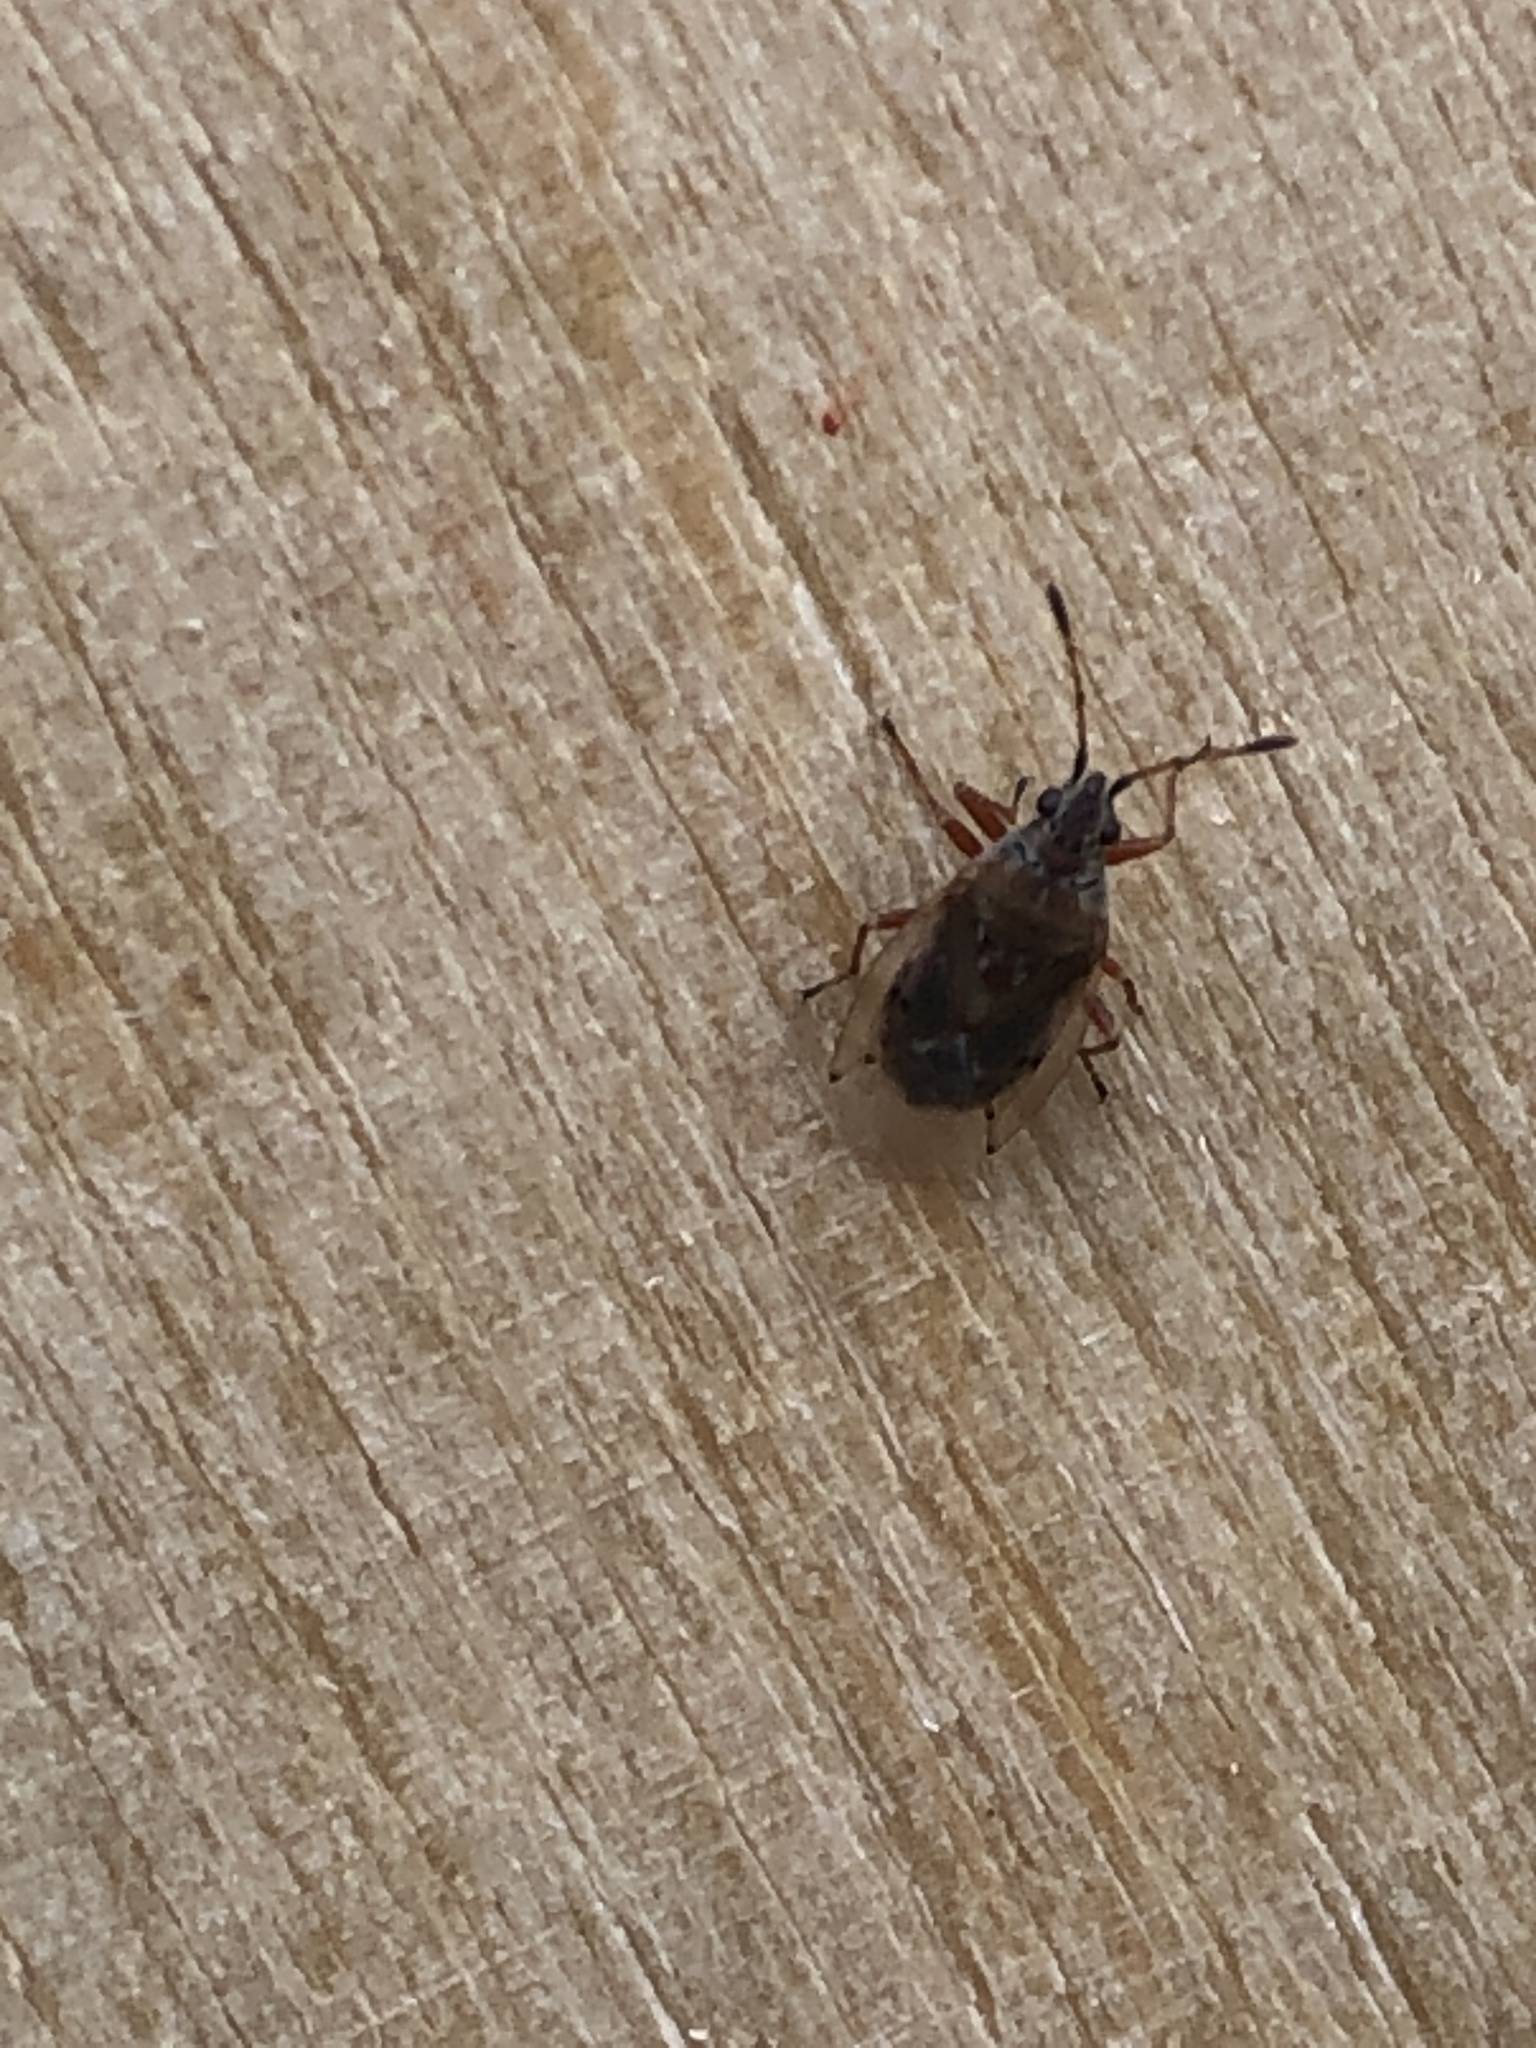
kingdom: Animalia
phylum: Arthropoda
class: Insecta
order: Hemiptera
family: Lygaeidae
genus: Kleidocerys
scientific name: Kleidocerys resedae
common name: Birch catkin bug
